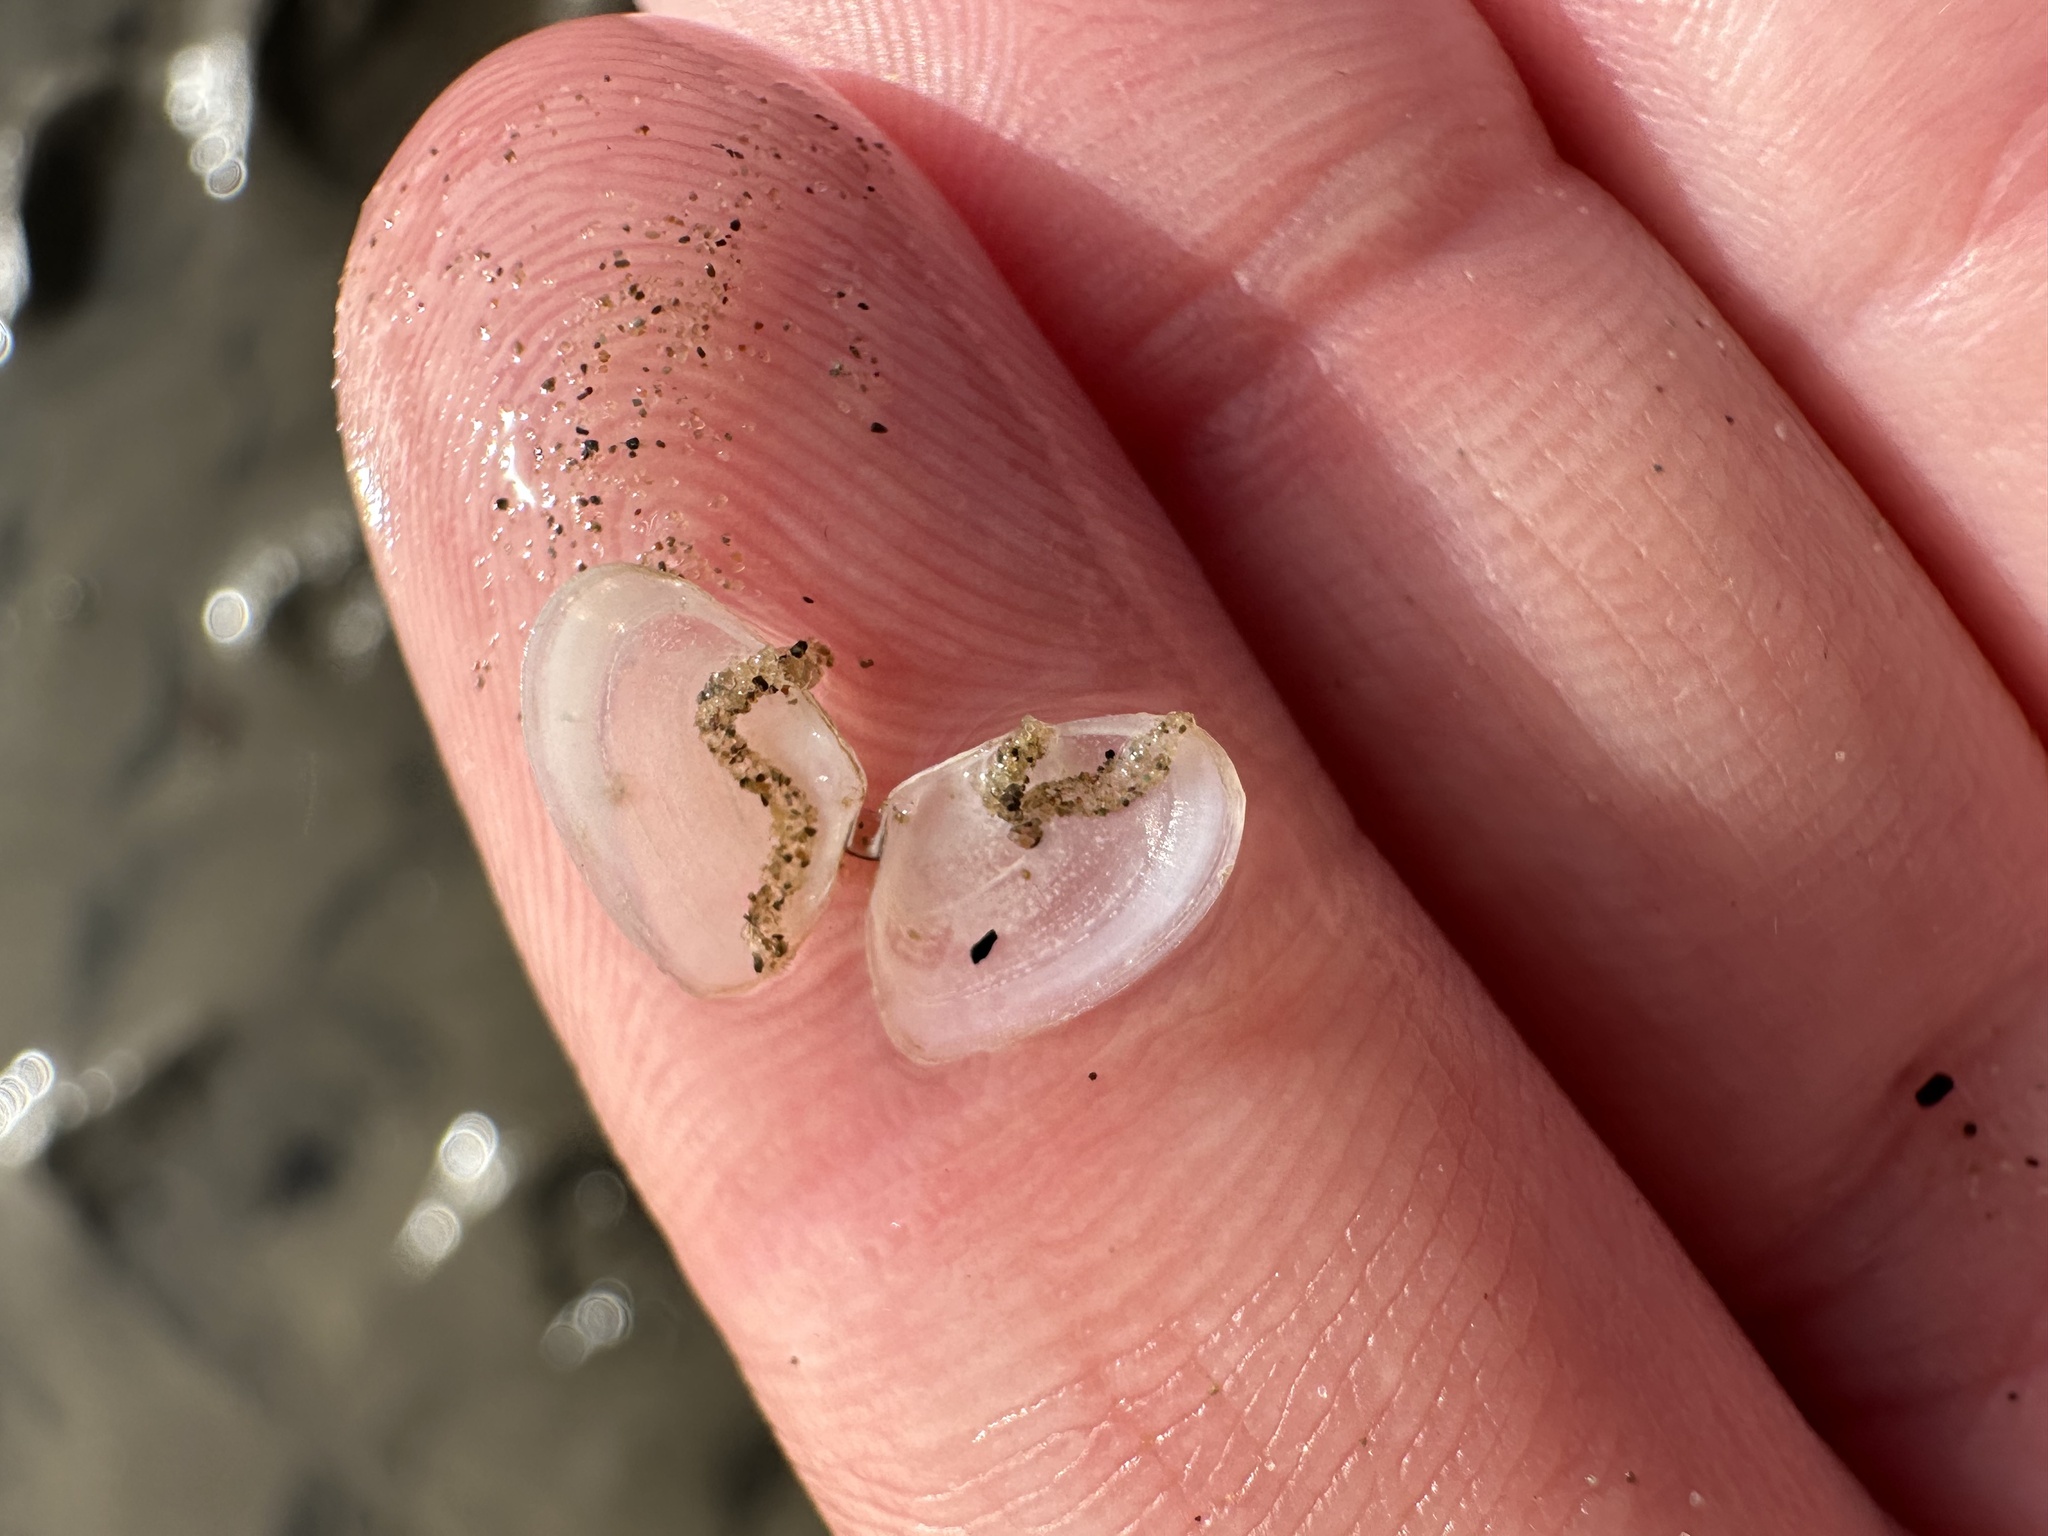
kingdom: Animalia
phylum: Mollusca
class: Bivalvia
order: Cardiida
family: Tellinidae
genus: Ameritella
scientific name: Ameritella agilis
